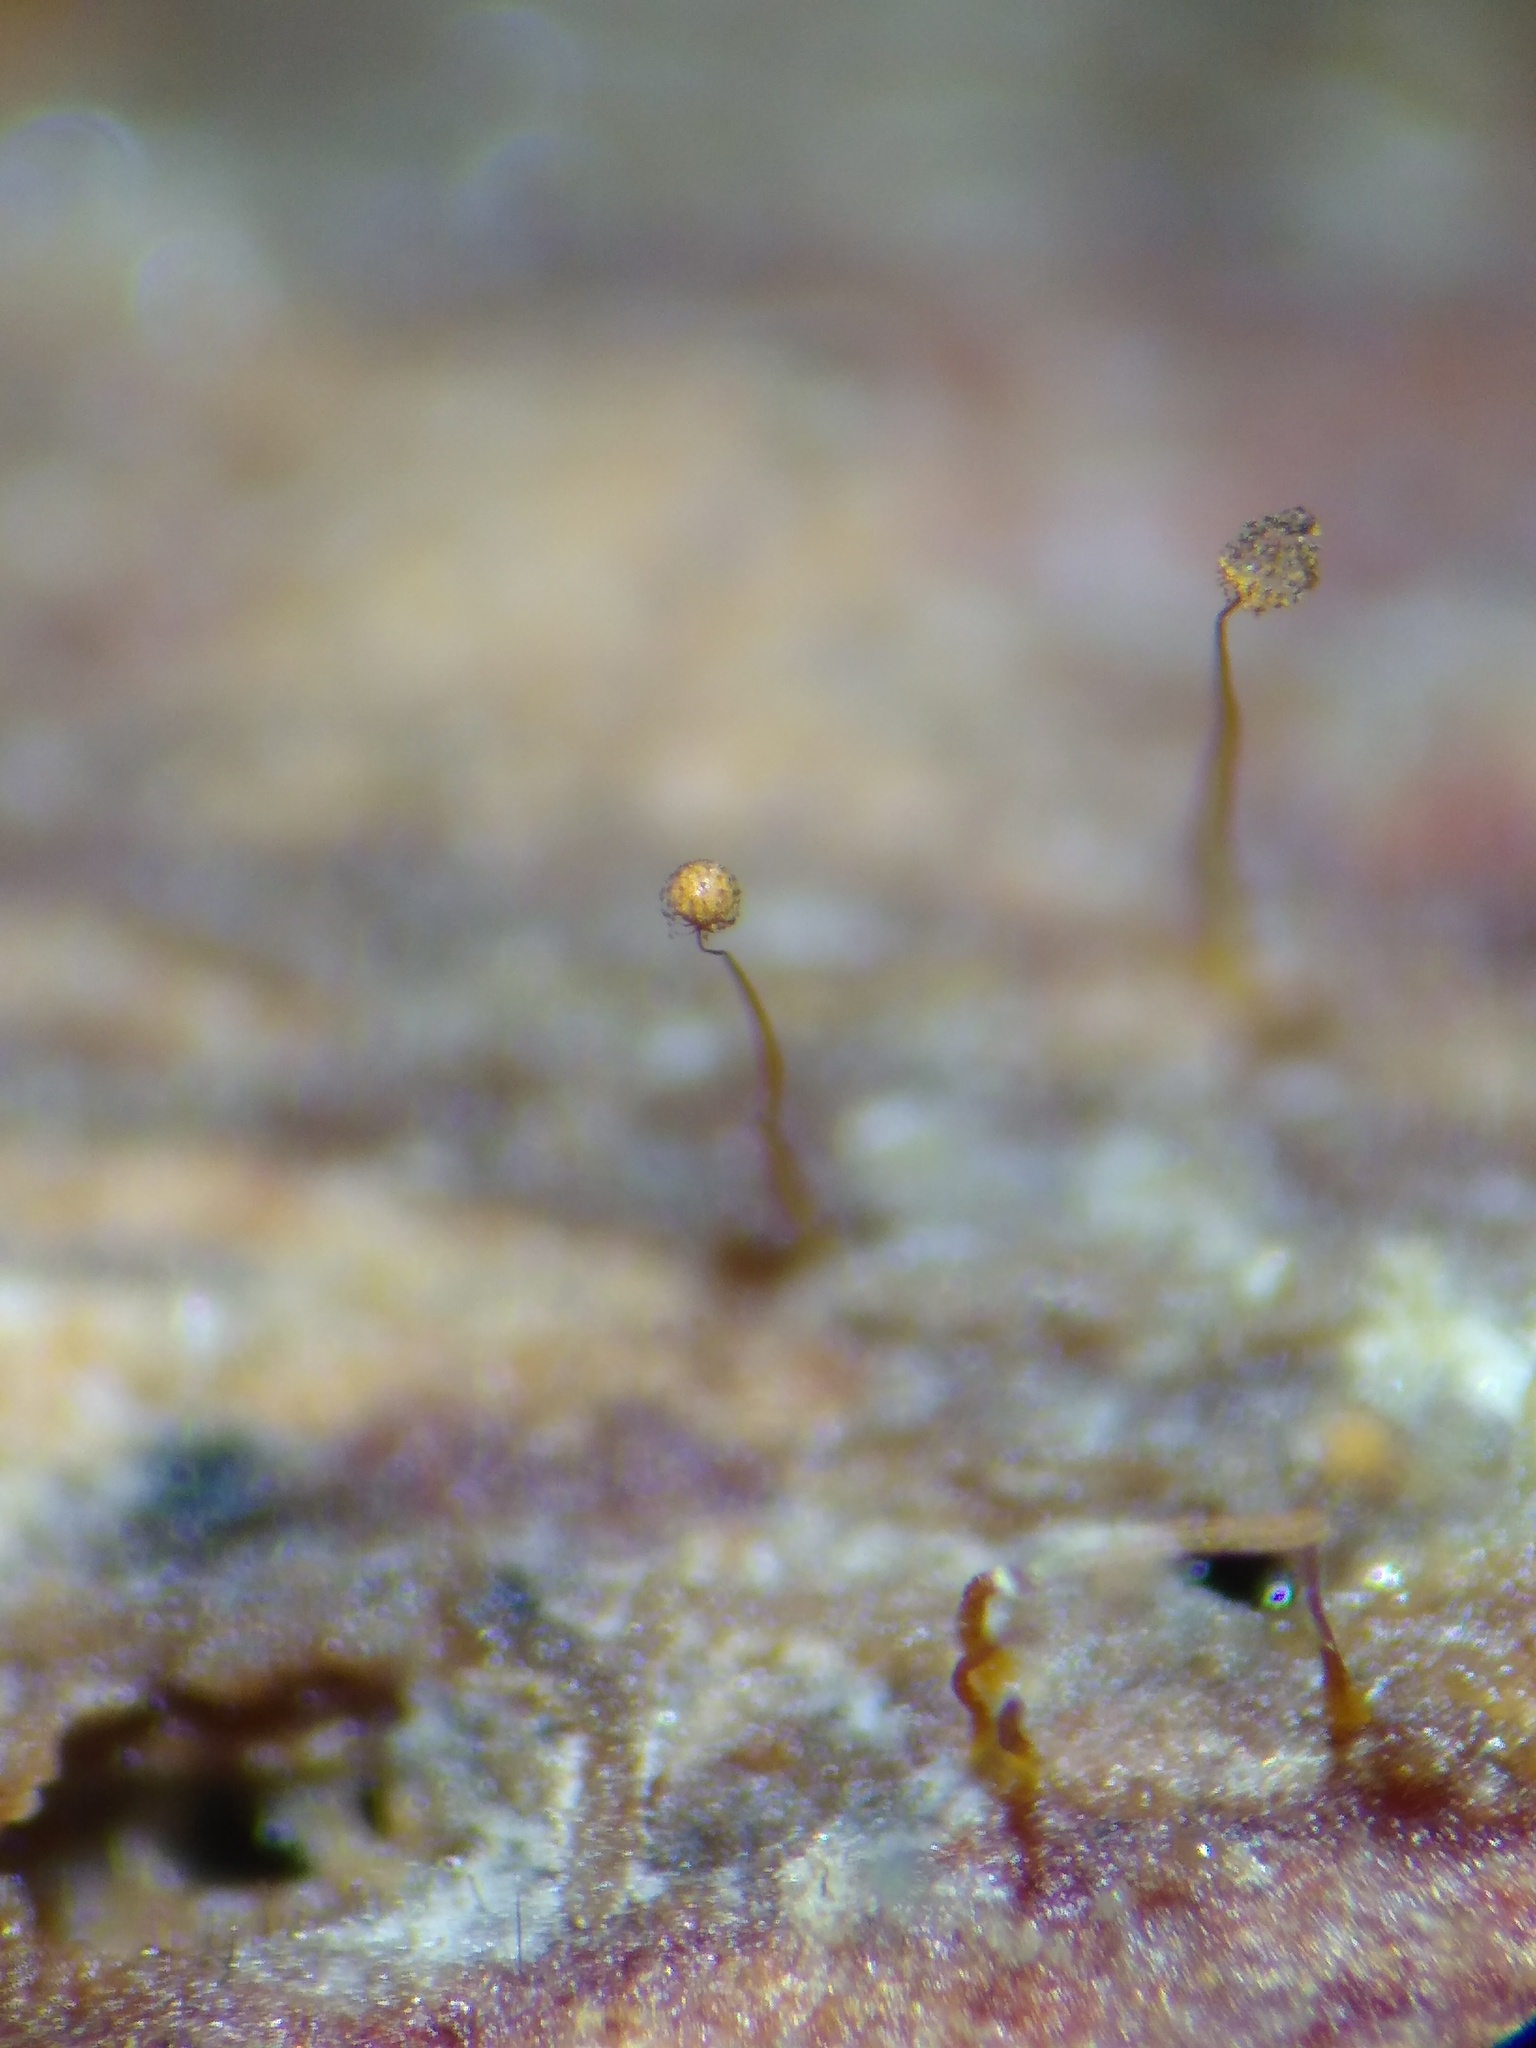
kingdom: Protozoa
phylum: Mycetozoa
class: Myxomycetes
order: Cribrariales
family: Cribrariaceae
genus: Cribraria
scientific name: Cribraria microcarpa
